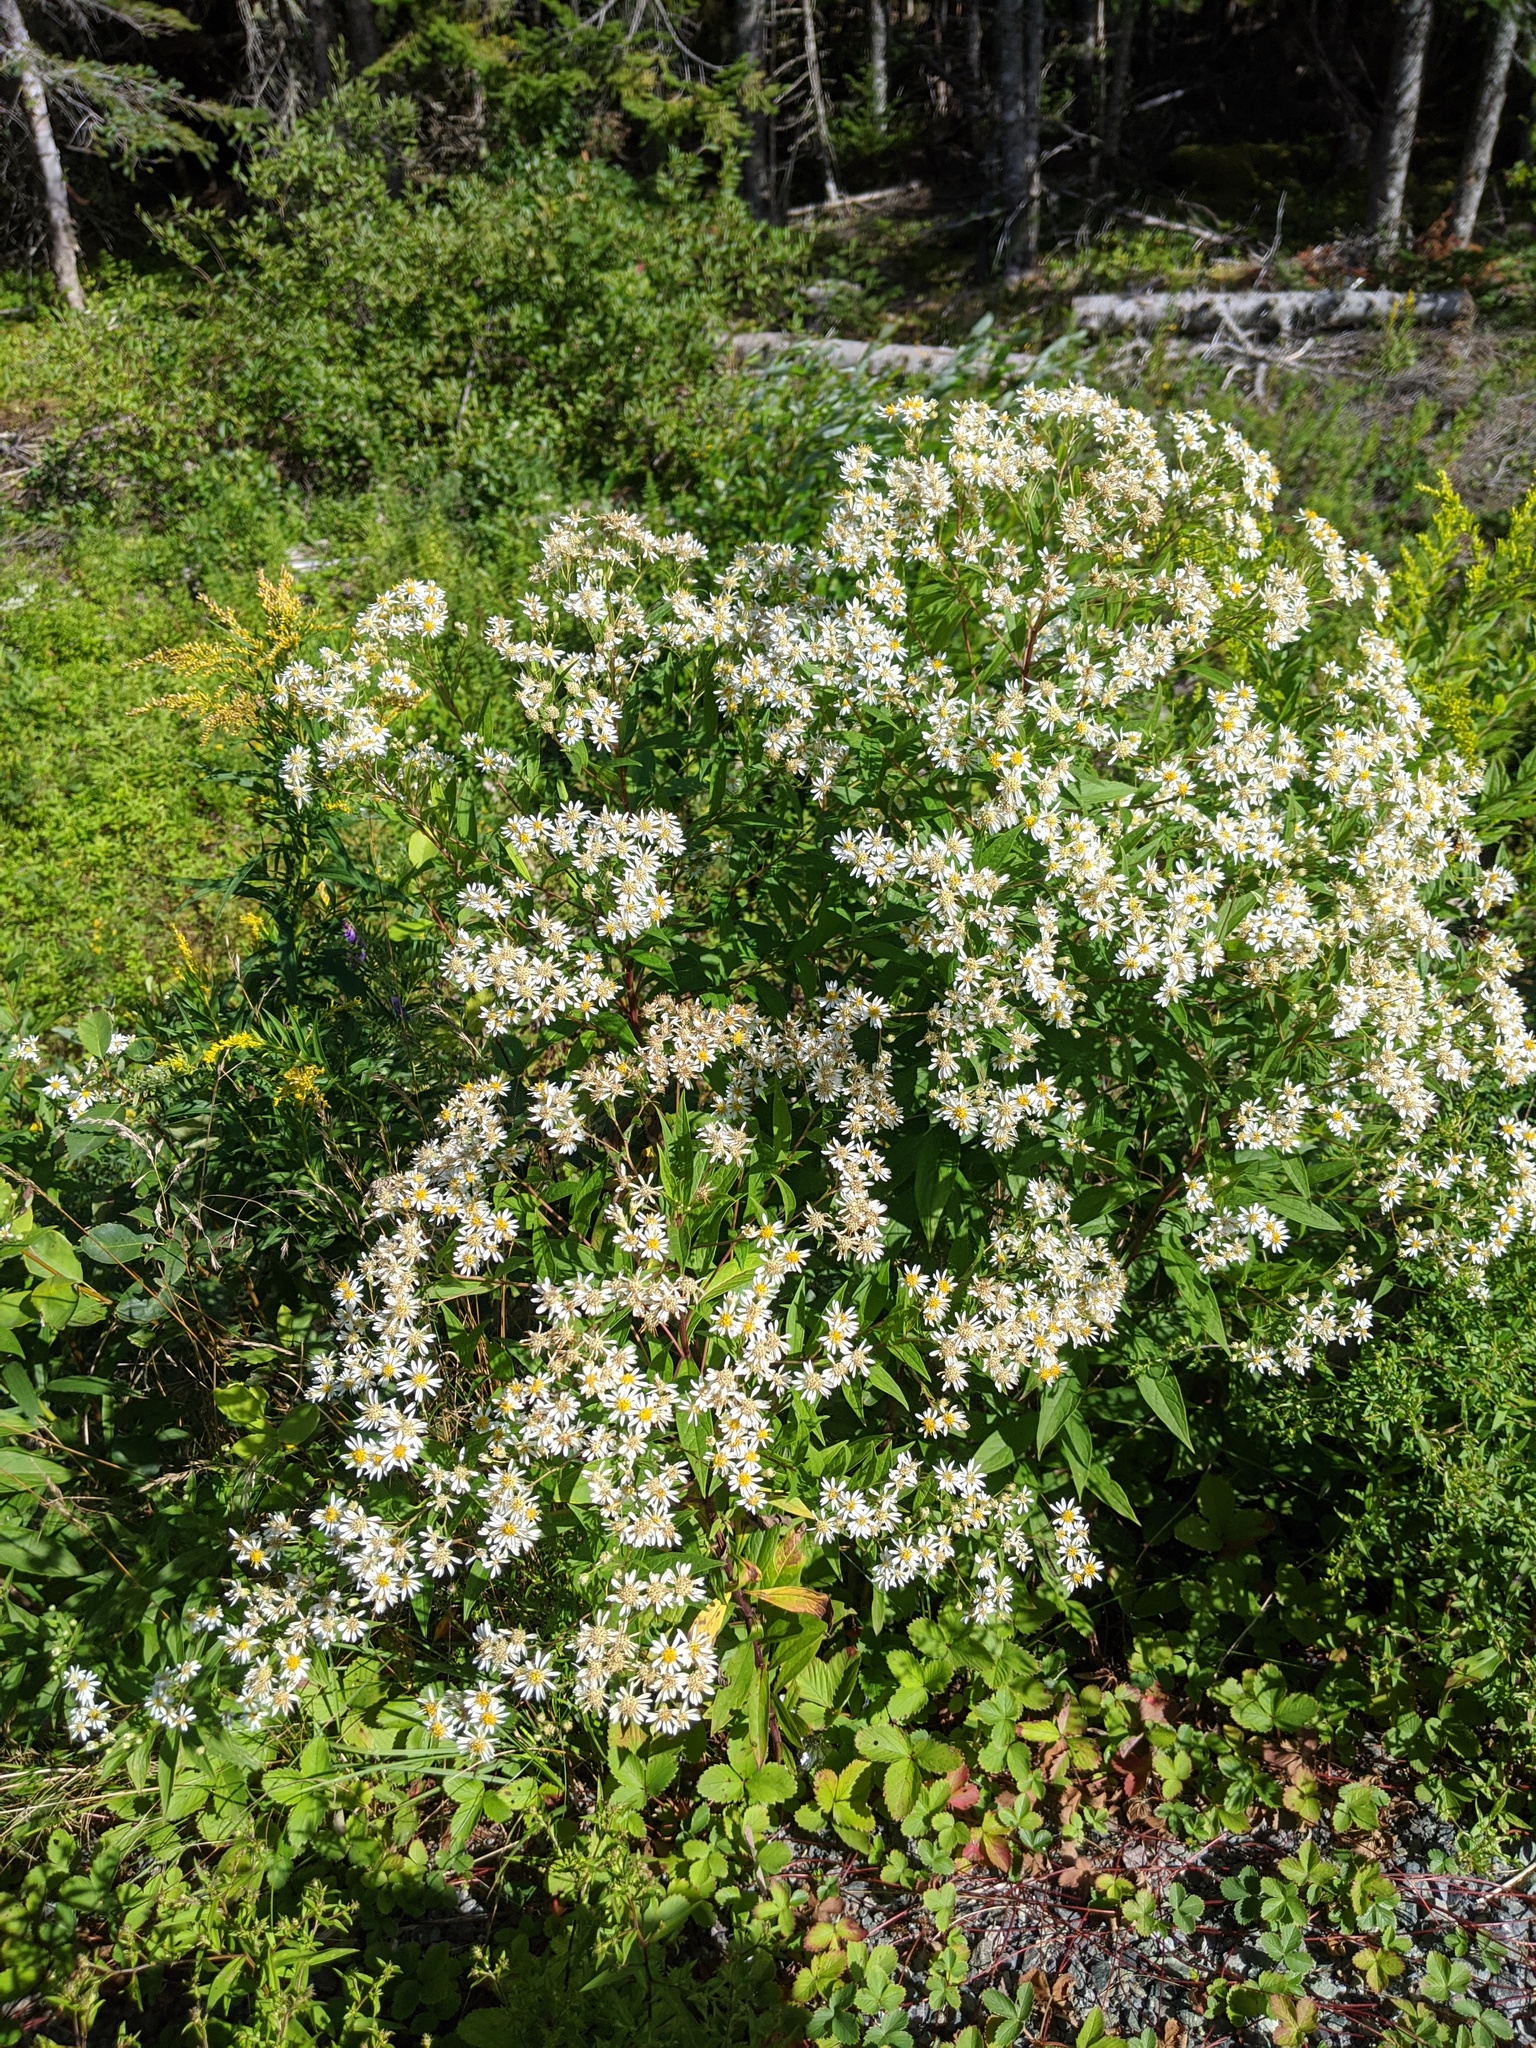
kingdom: Plantae
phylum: Tracheophyta
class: Magnoliopsida
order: Asterales
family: Asteraceae
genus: Doellingeria
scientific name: Doellingeria umbellata
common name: Flat-top white aster
